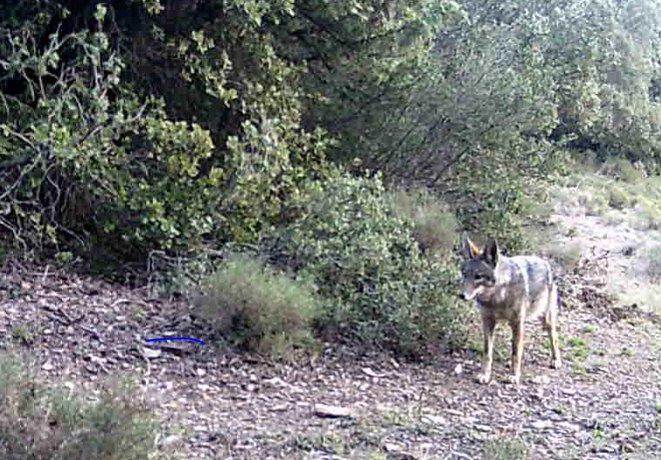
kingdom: Animalia
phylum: Chordata
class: Mammalia
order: Carnivora
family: Canidae
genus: Canis
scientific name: Canis lupaster
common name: African golden wolf
